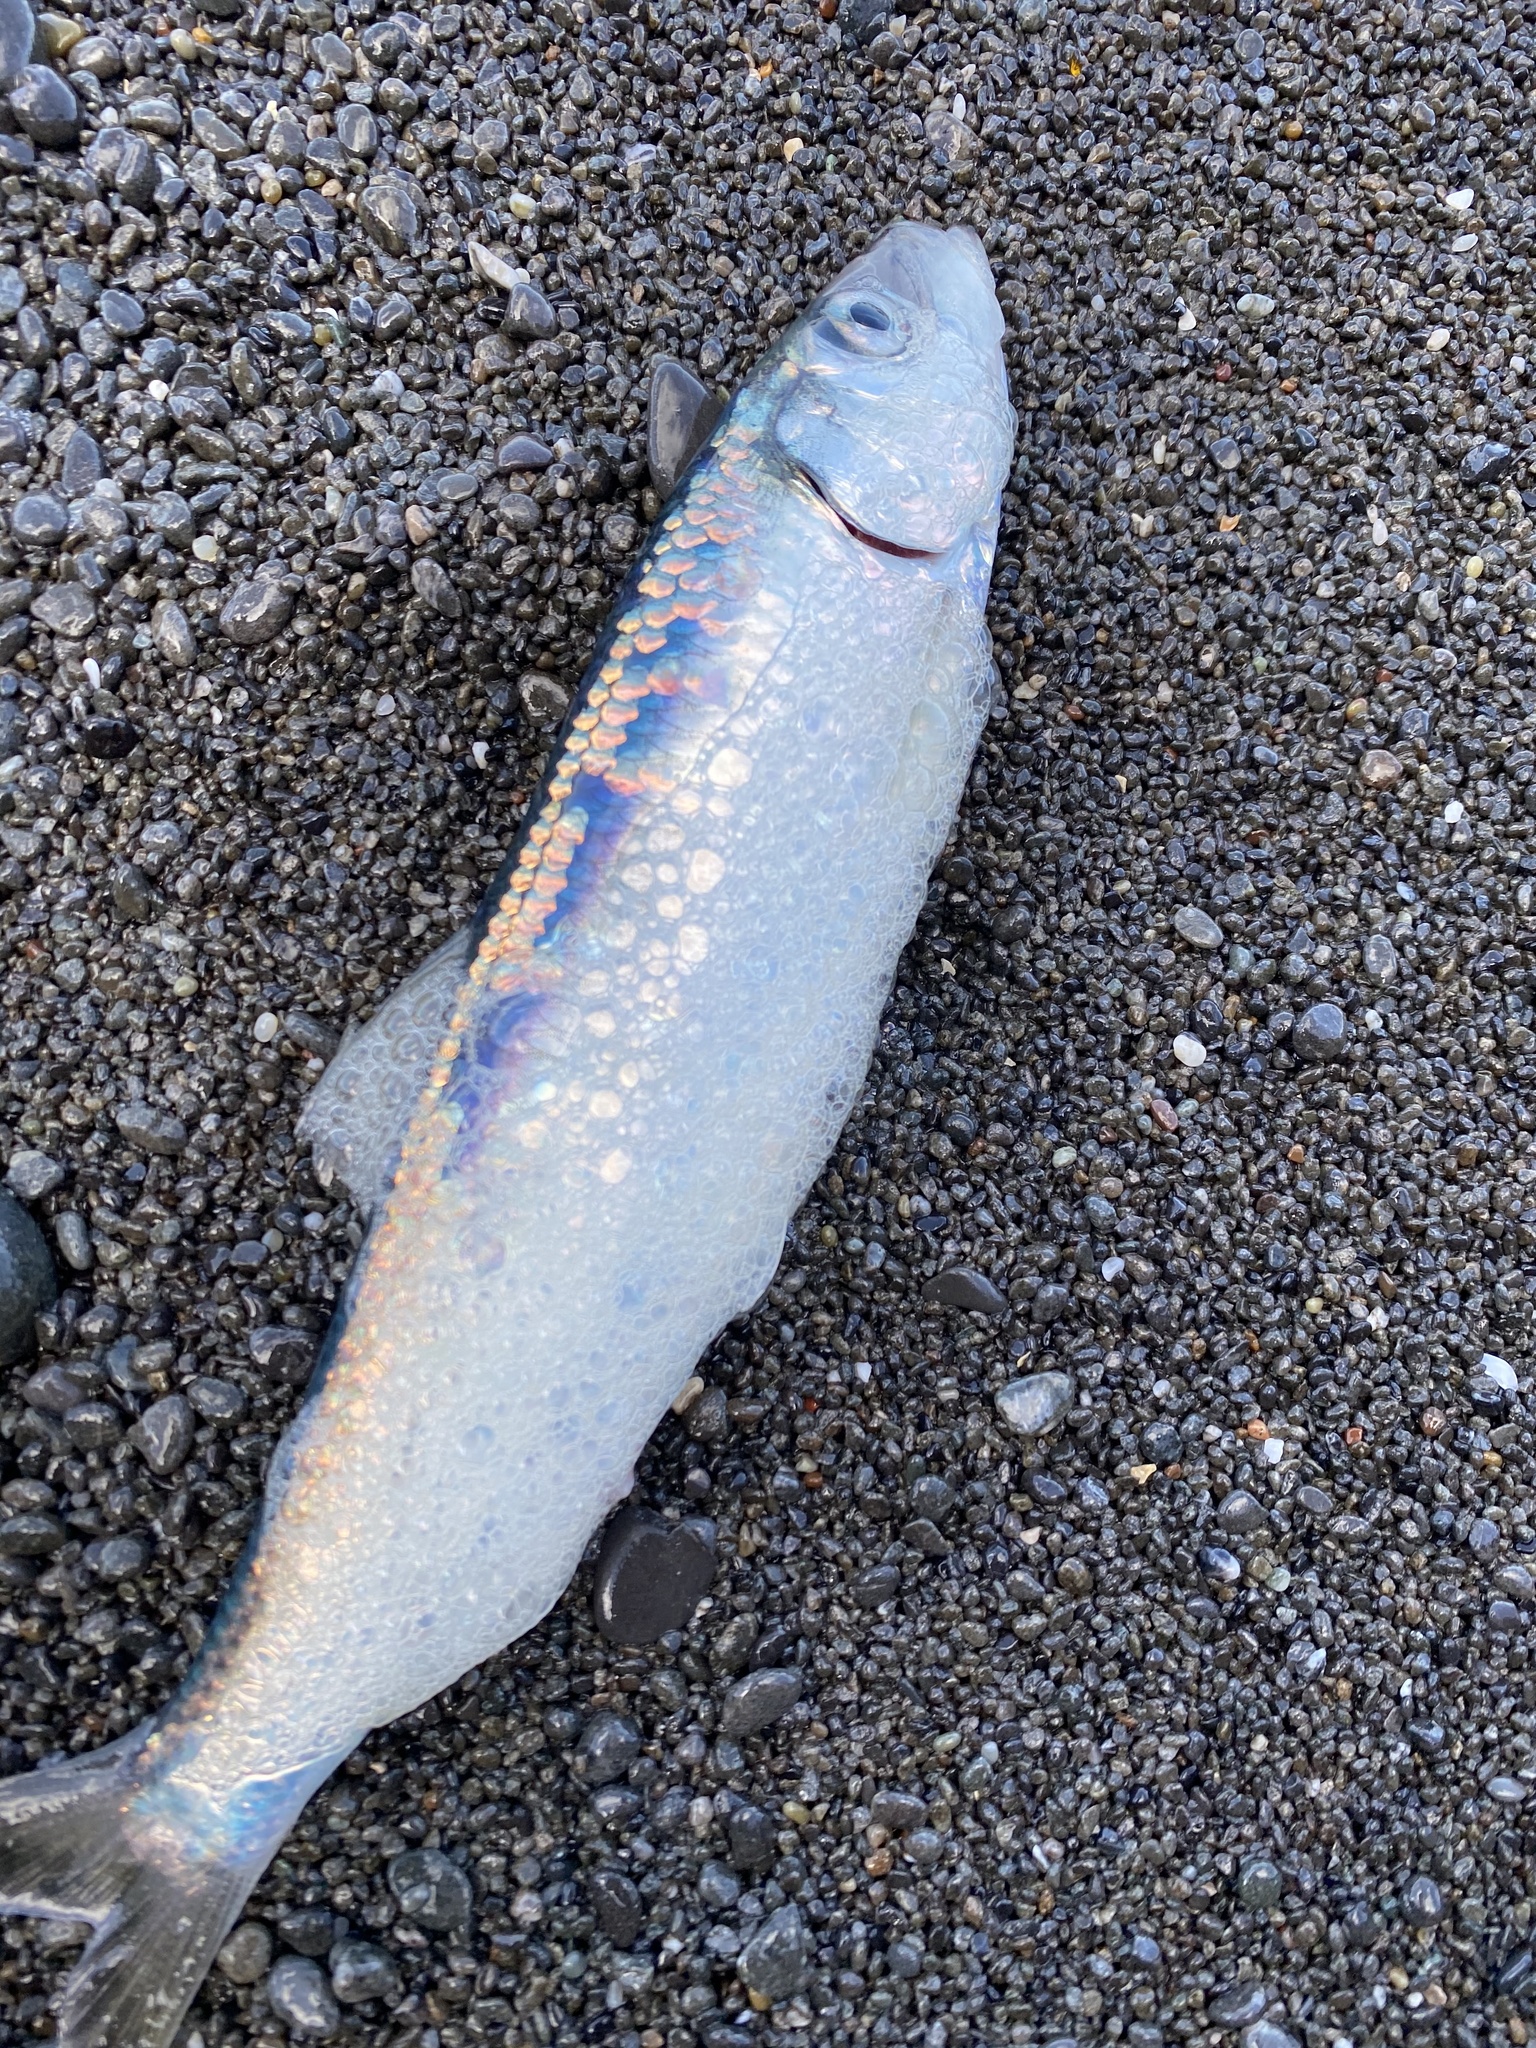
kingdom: Animalia
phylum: Chordata
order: Clupeiformes
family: Clupeidae
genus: Clupea
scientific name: Clupea pallasii
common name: Pacific herring
